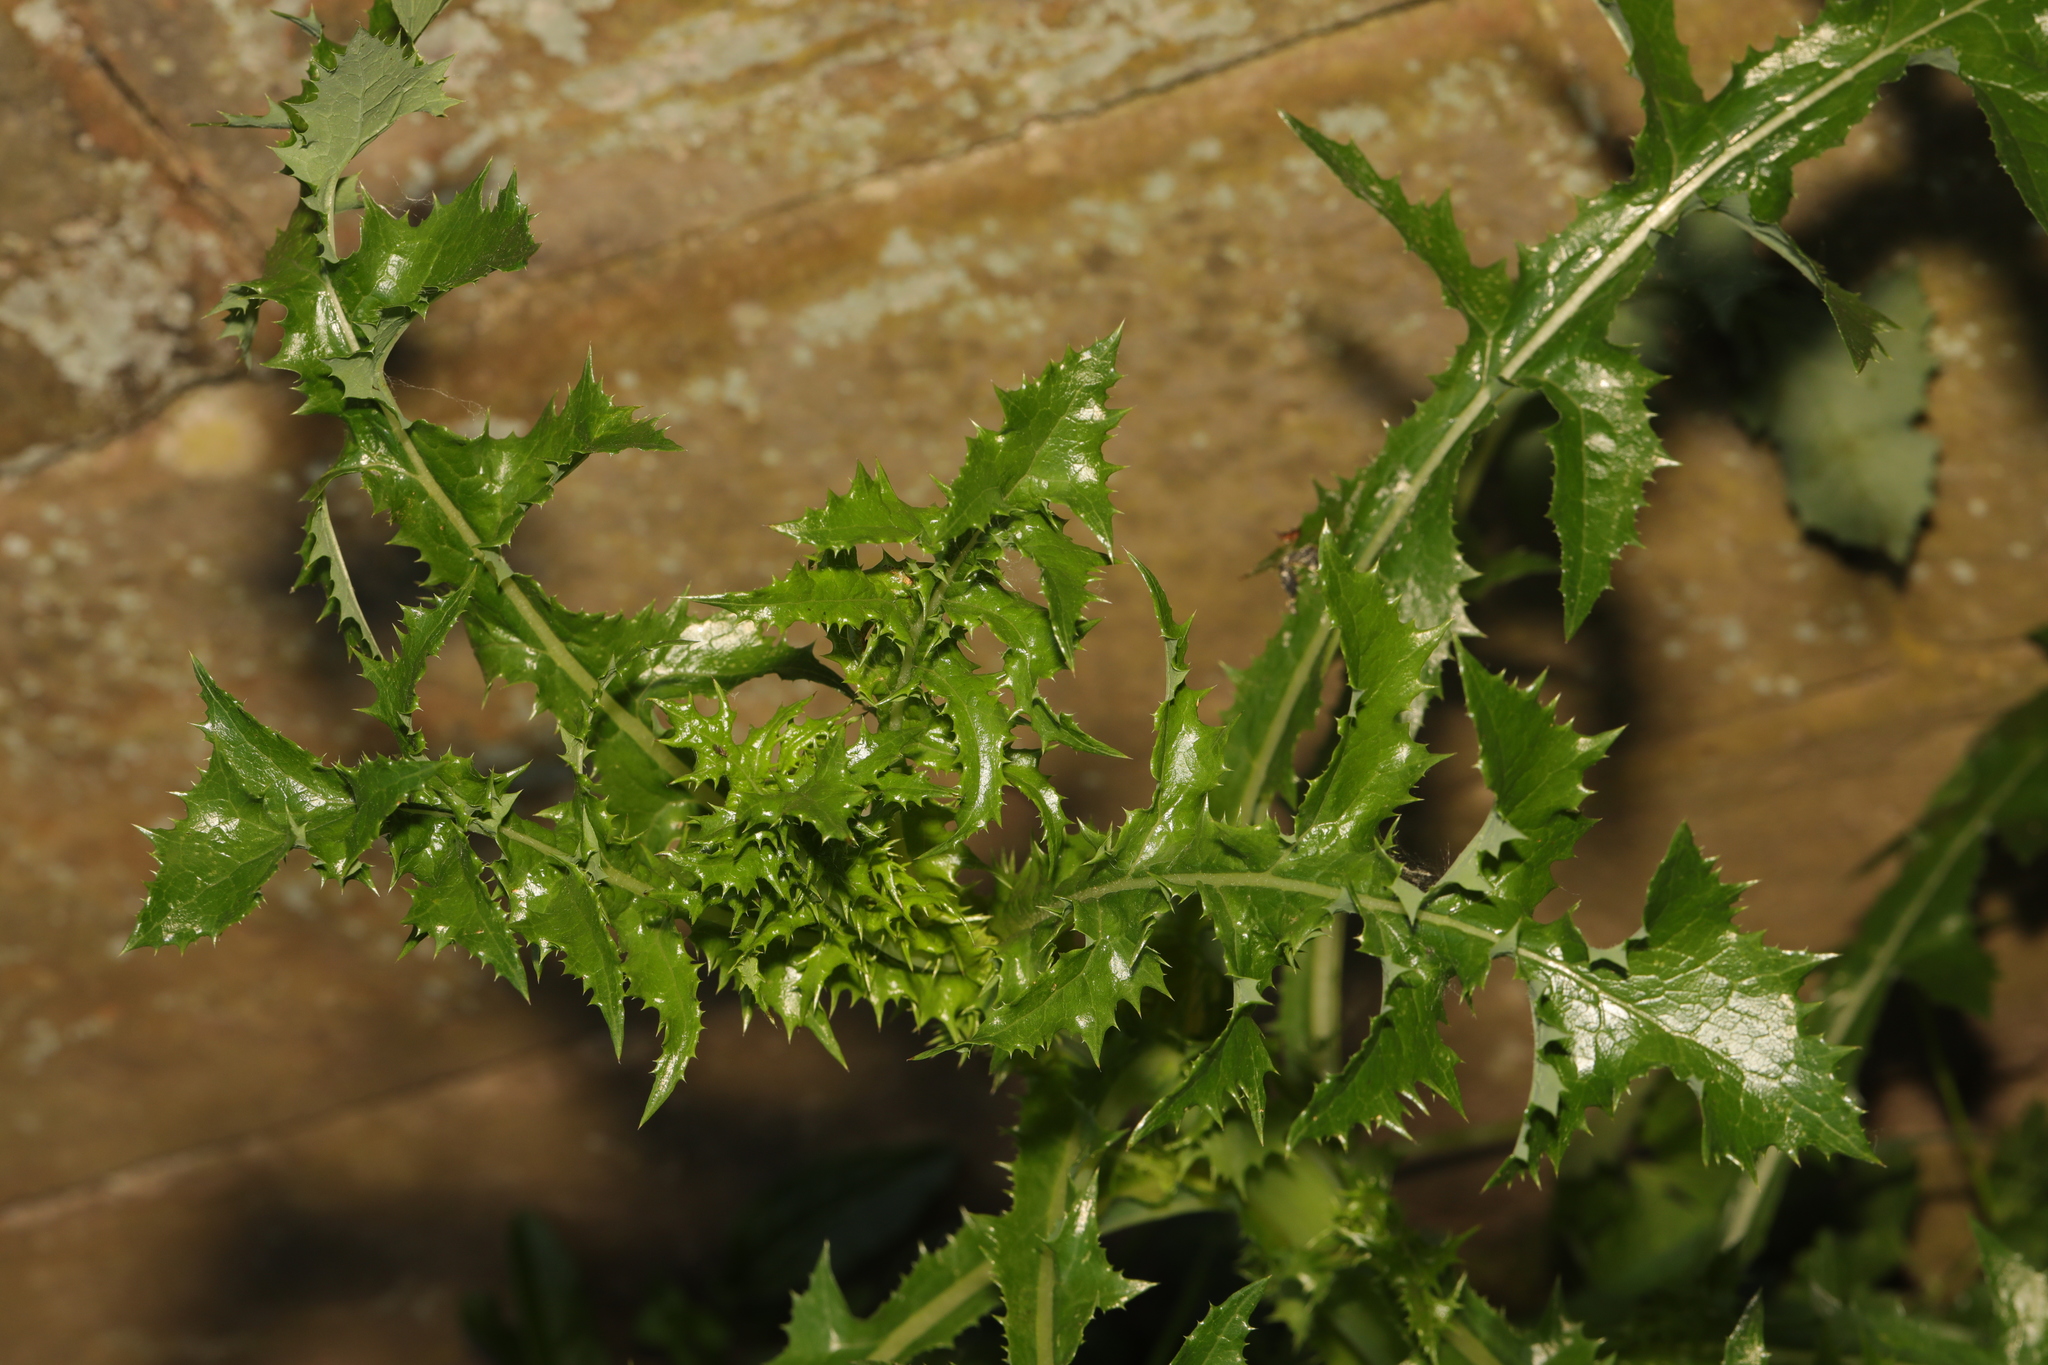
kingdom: Plantae
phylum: Tracheophyta
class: Magnoliopsida
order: Asterales
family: Asteraceae
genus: Sonchus
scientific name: Sonchus asper
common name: Prickly sow-thistle
